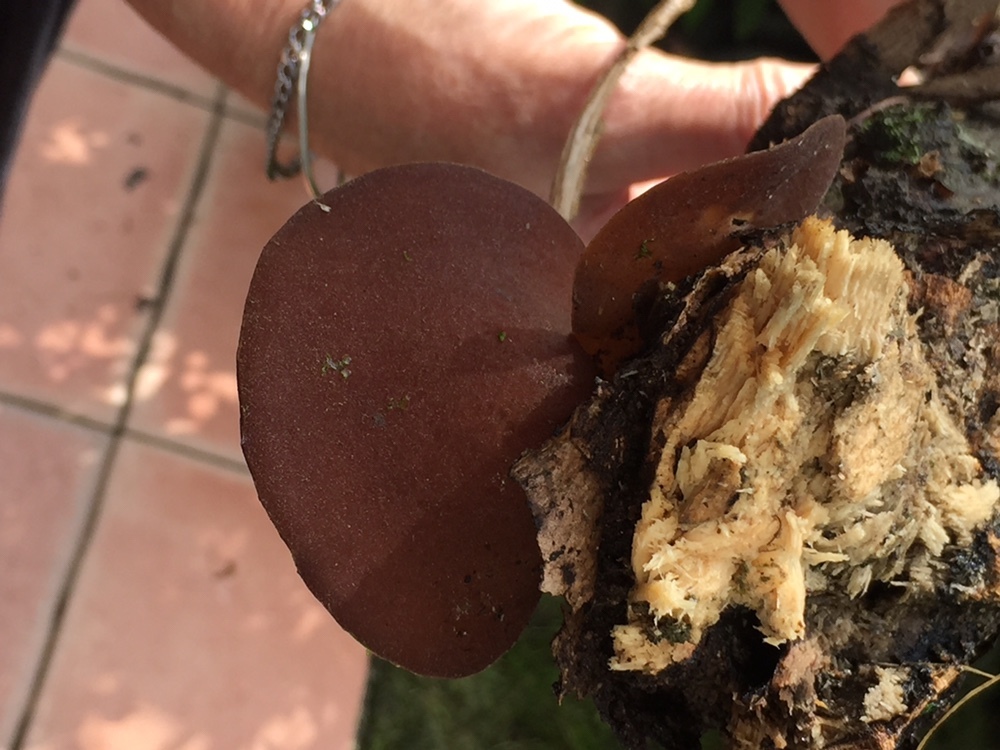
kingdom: Fungi
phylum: Basidiomycota
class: Agaricomycetes
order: Auriculariales
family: Auriculariaceae
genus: Auricularia
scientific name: Auricularia cornea
